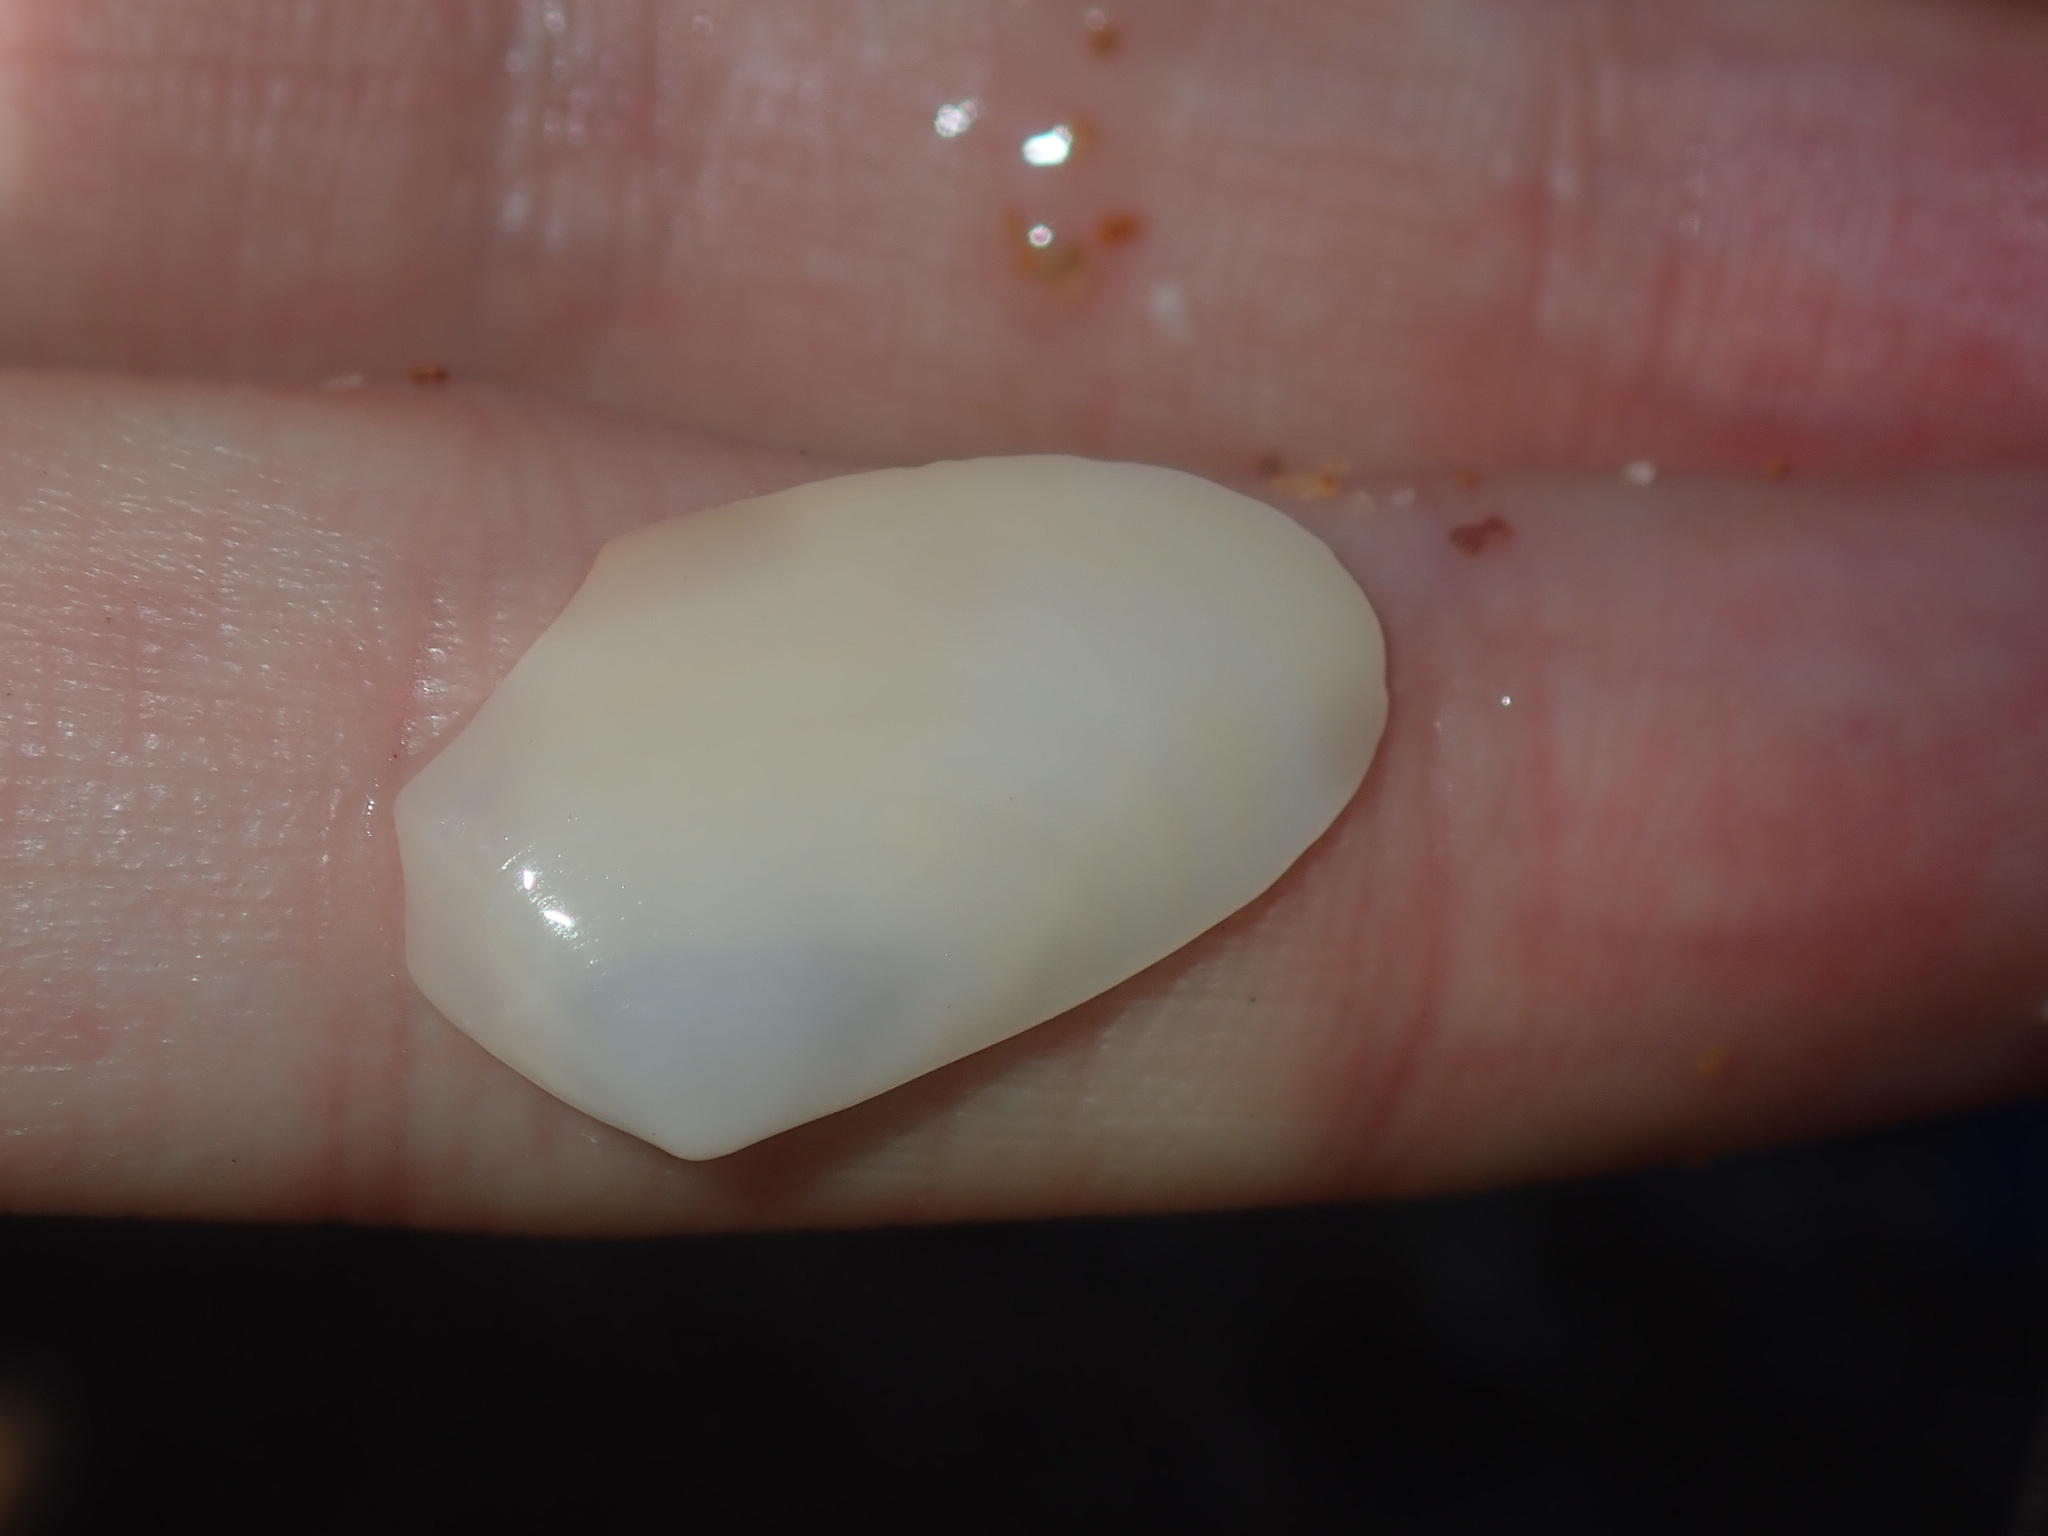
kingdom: Animalia
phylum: Mollusca
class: Bivalvia
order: Venerida
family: Mesodesmatidae
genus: Paphies
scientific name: Paphies angusta
